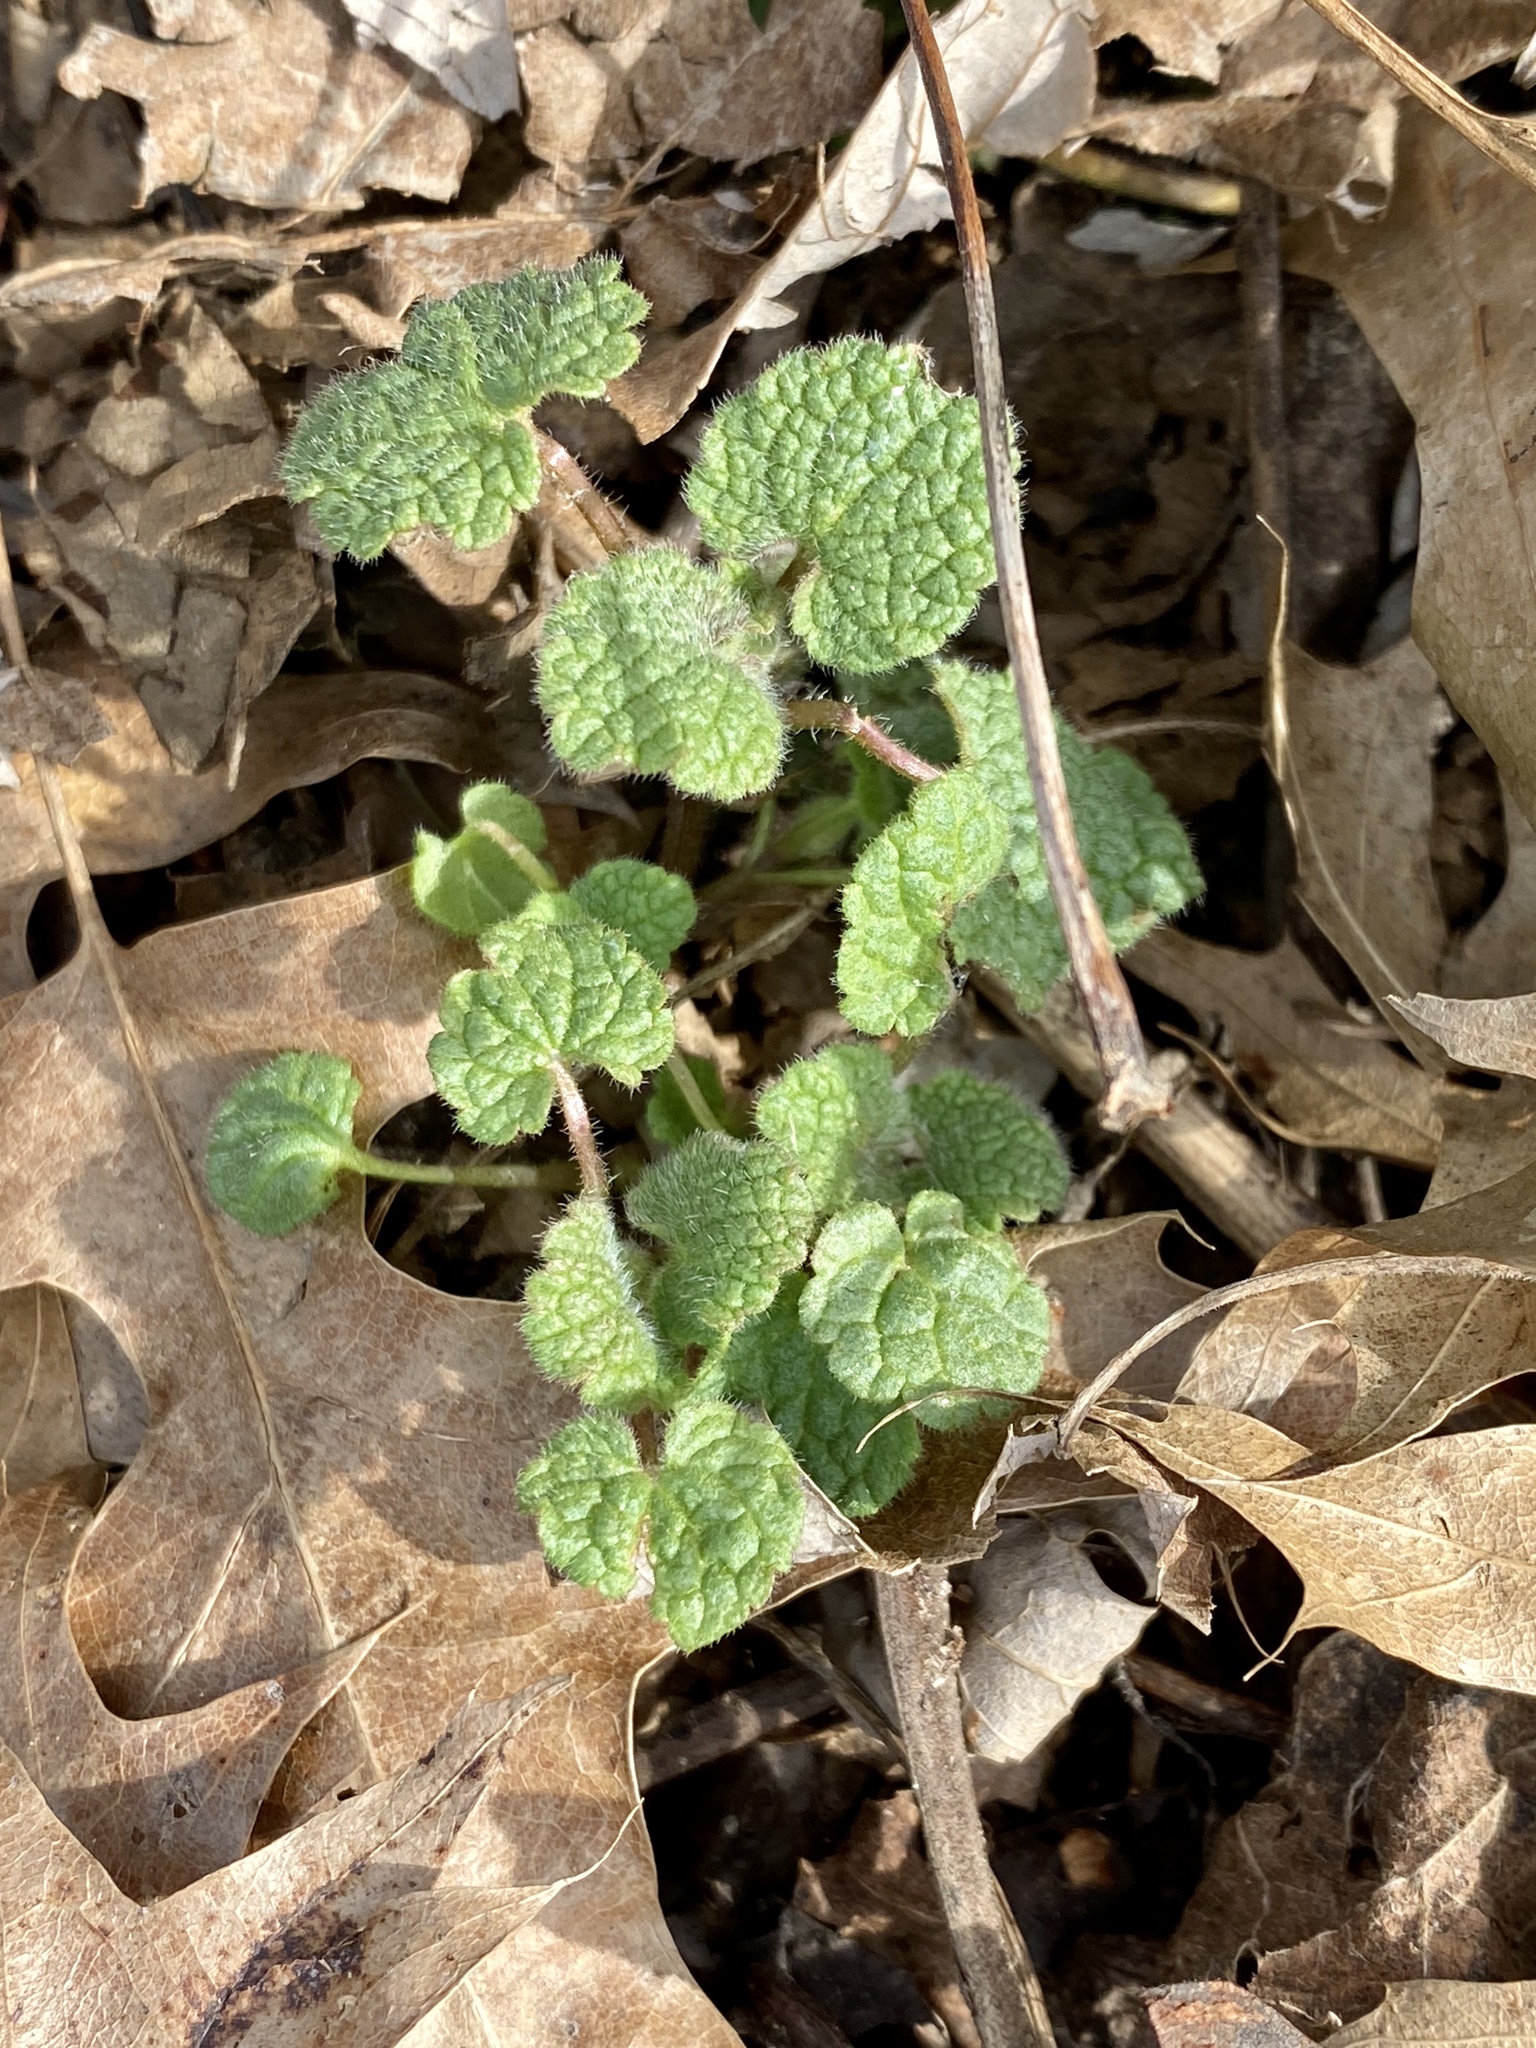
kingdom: Plantae
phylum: Tracheophyta
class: Magnoliopsida
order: Lamiales
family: Lamiaceae
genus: Lamium
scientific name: Lamium purpureum
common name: Red dead-nettle
